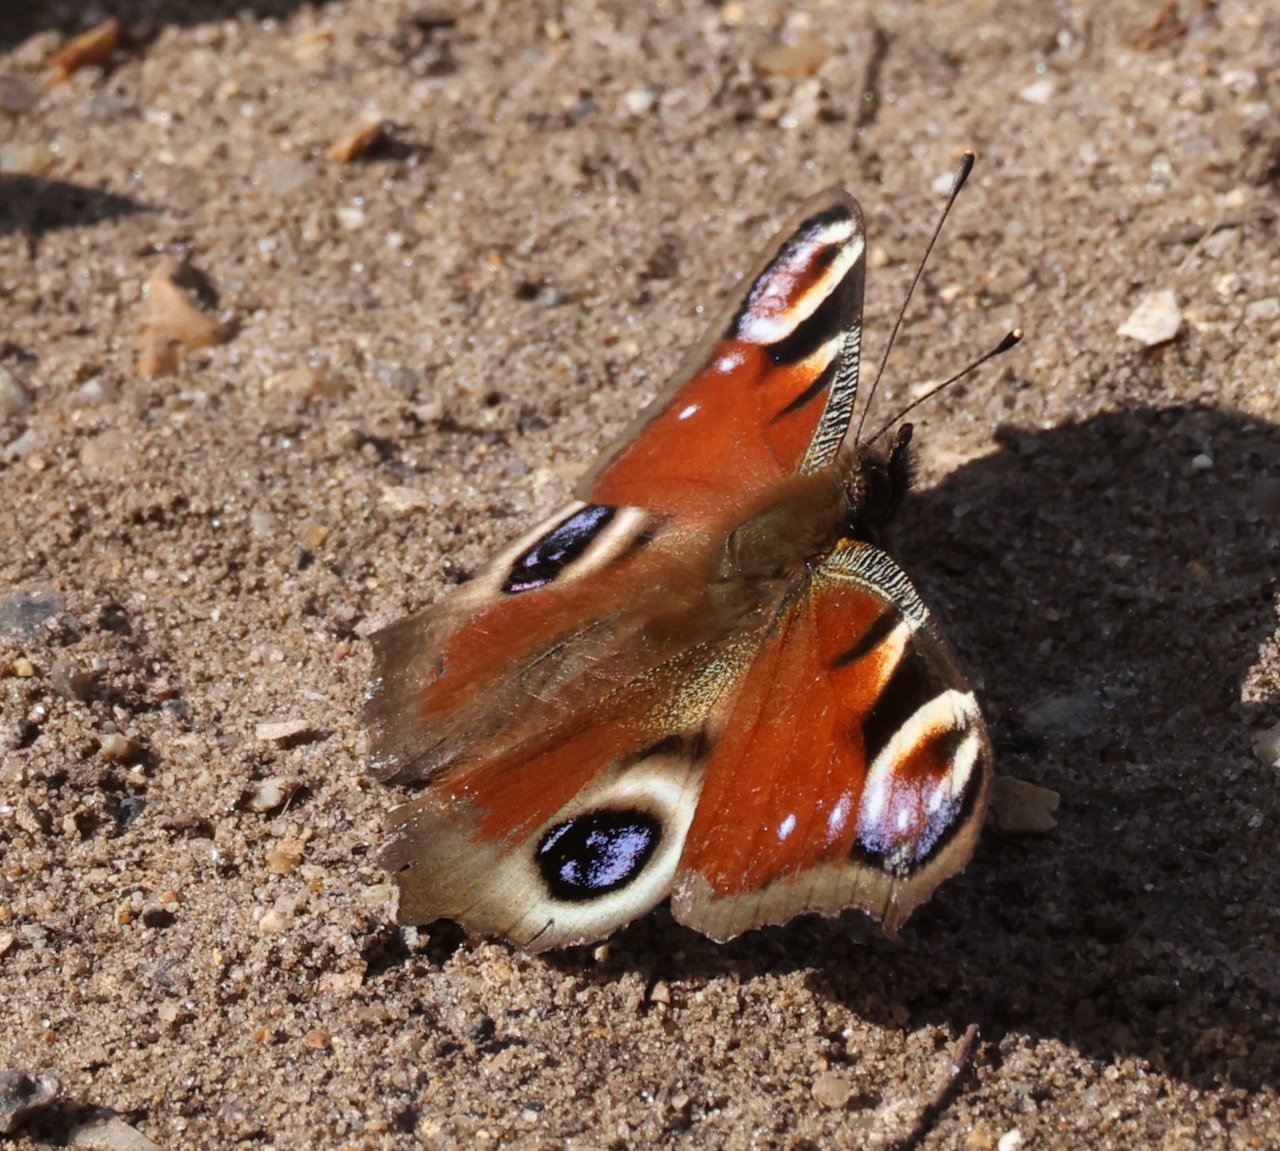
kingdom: Animalia
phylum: Arthropoda
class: Insecta
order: Lepidoptera
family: Nymphalidae
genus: Aglais
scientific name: Aglais io
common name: Peacock
